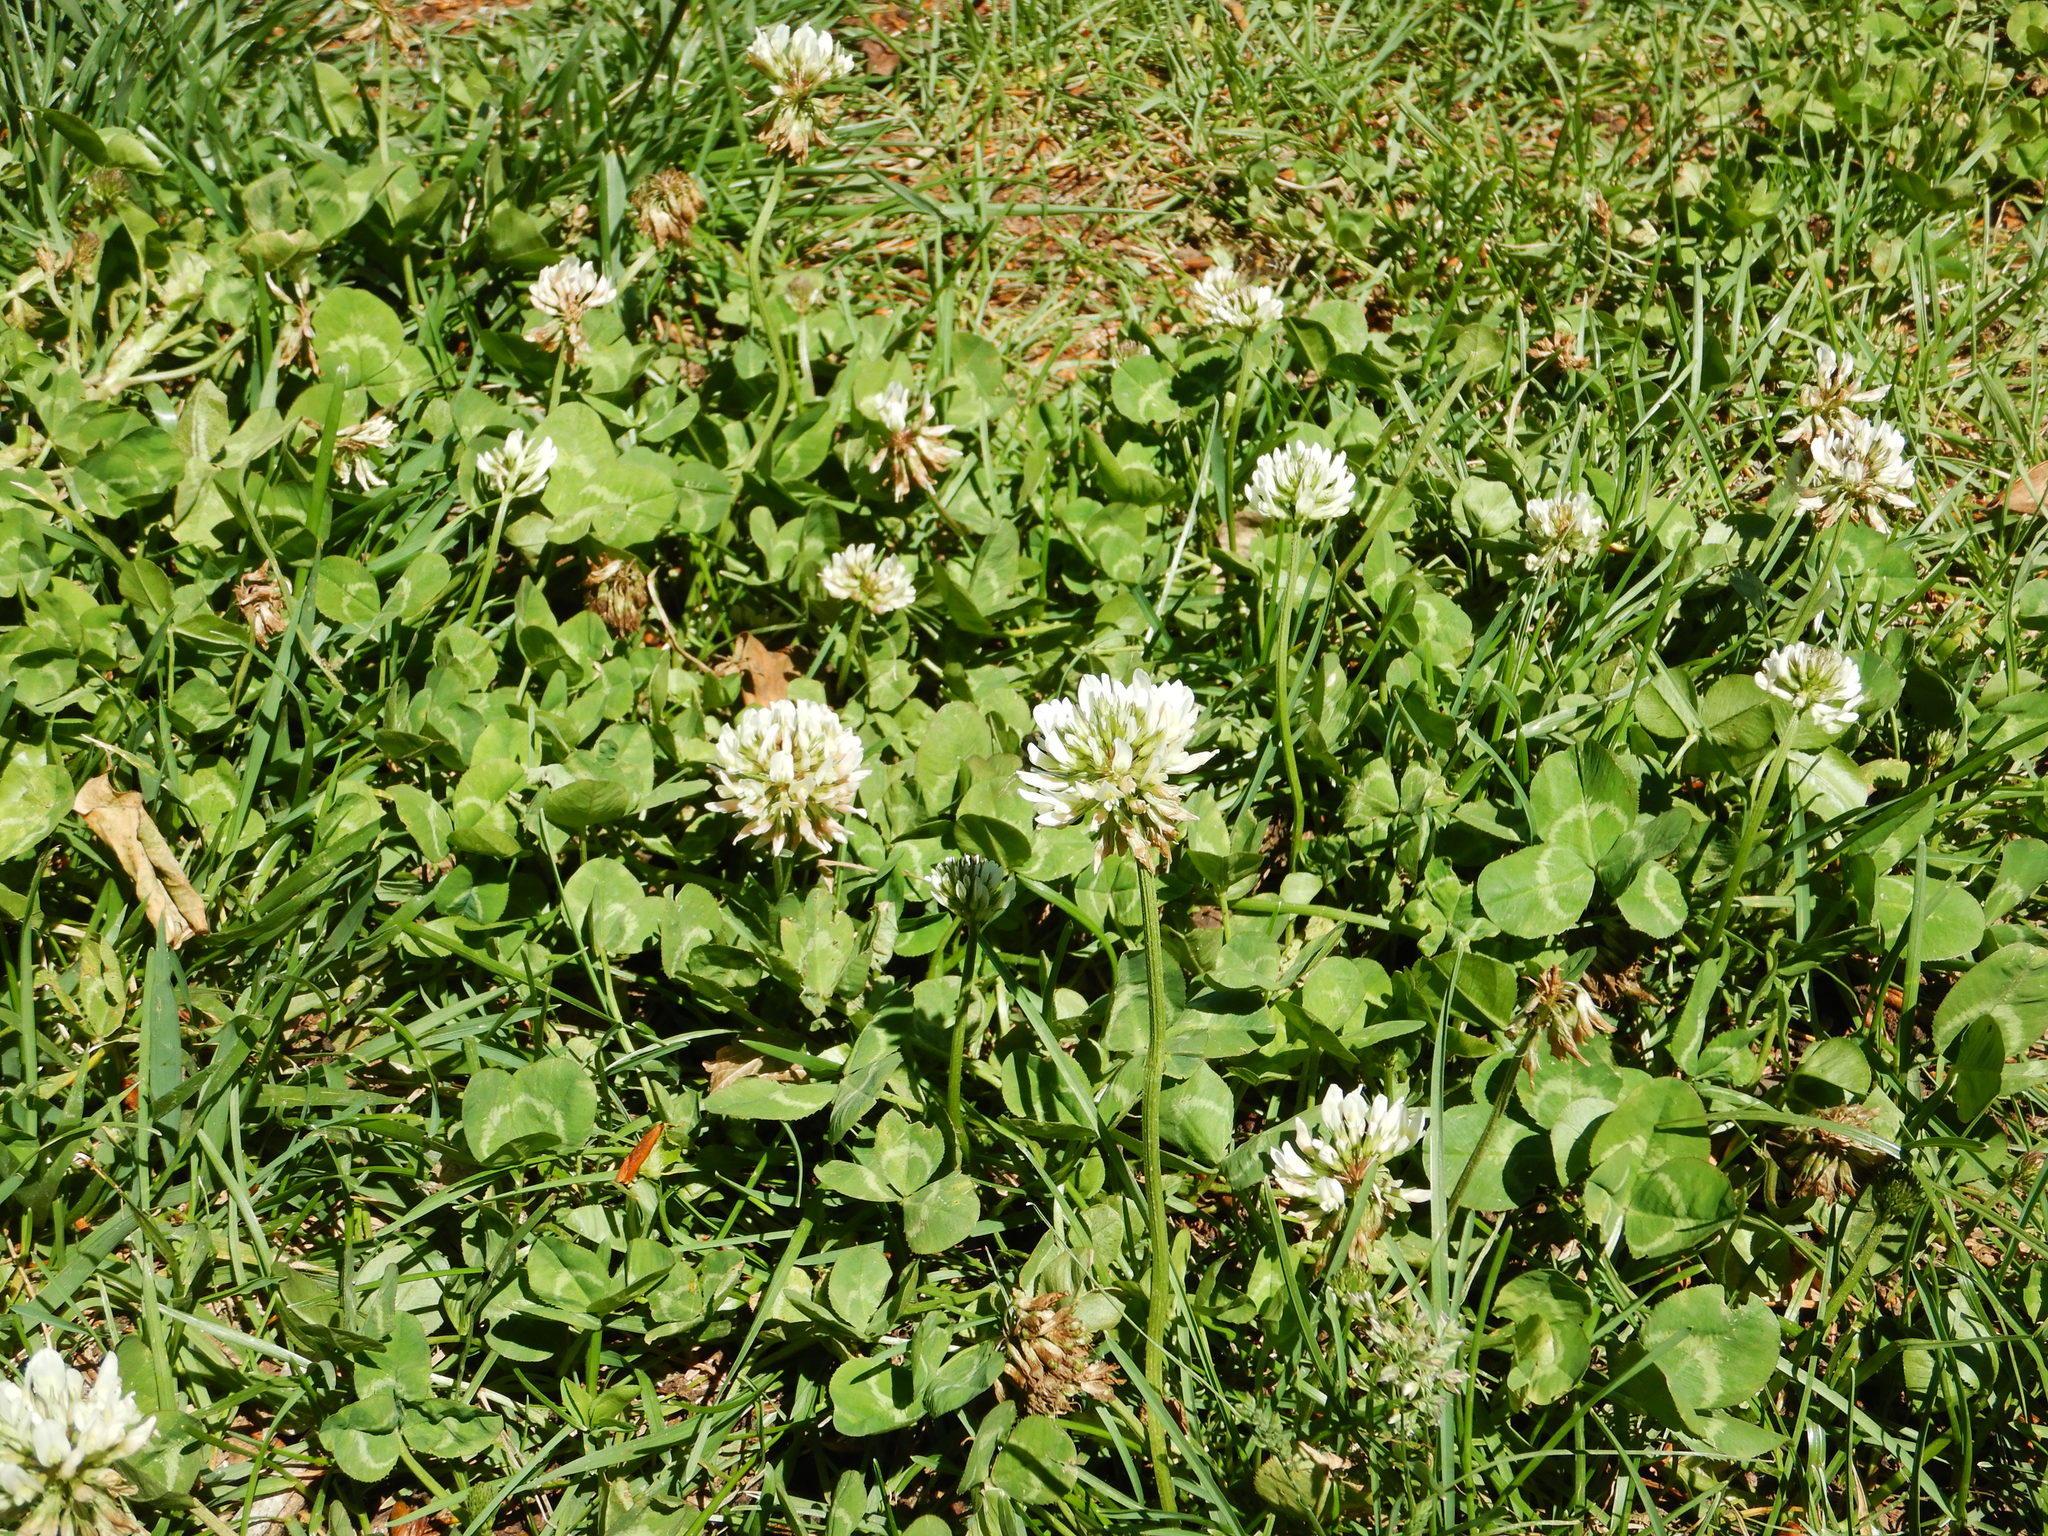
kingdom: Plantae
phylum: Tracheophyta
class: Magnoliopsida
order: Fabales
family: Fabaceae
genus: Trifolium
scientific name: Trifolium repens
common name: White clover
